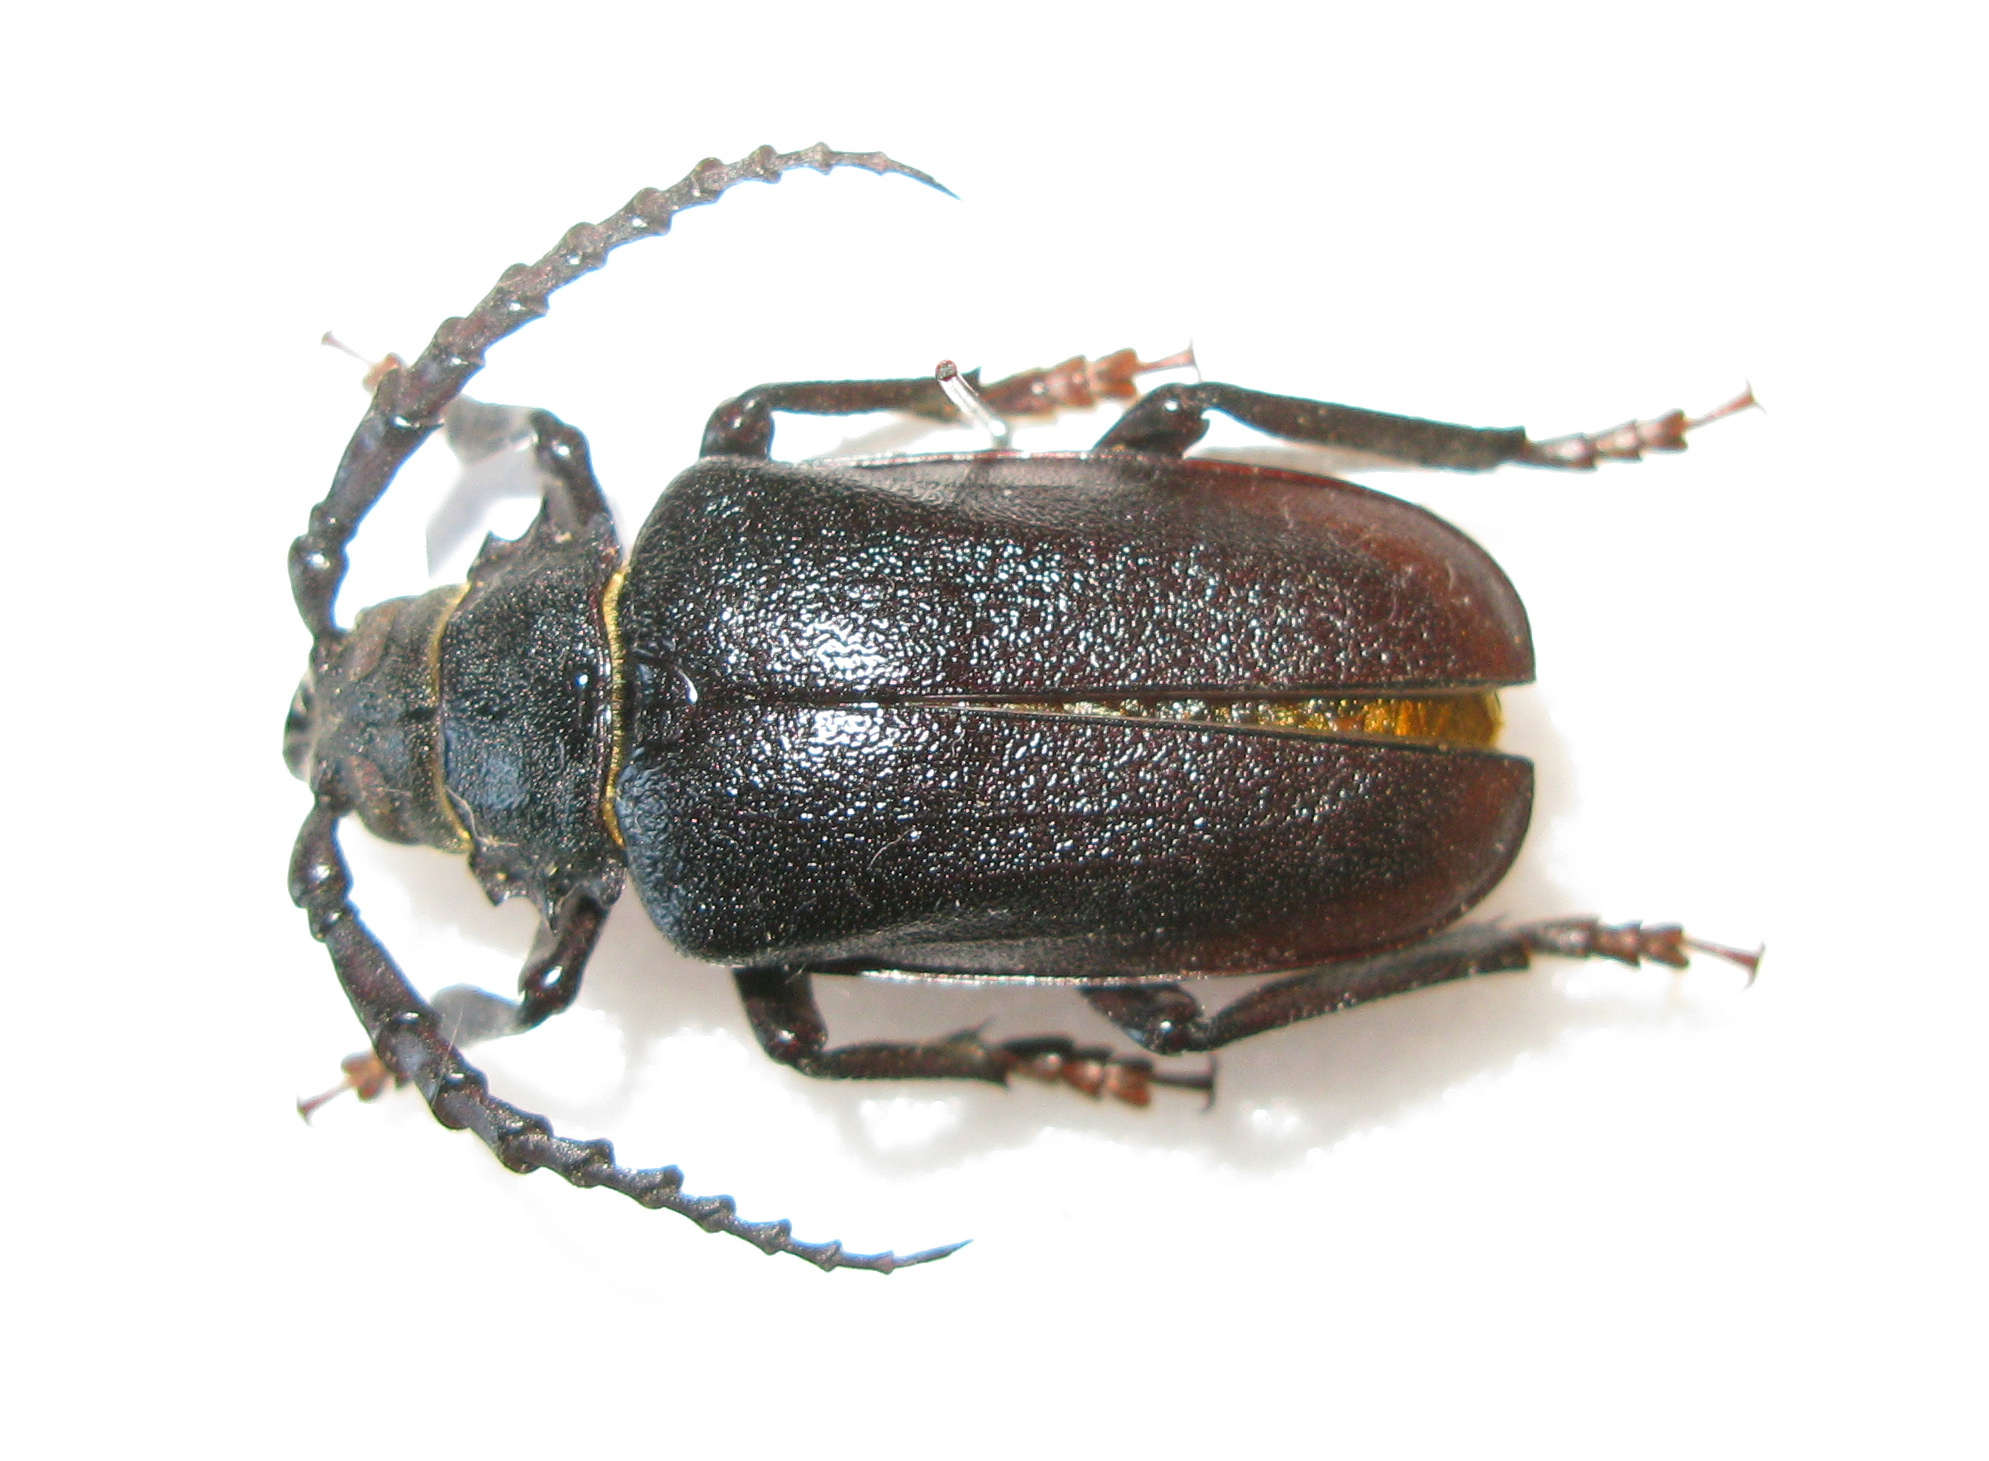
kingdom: Animalia
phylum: Arthropoda
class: Insecta
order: Coleoptera
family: Cerambycidae
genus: Prionus
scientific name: Prionus coriarius
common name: Tanner beetle
